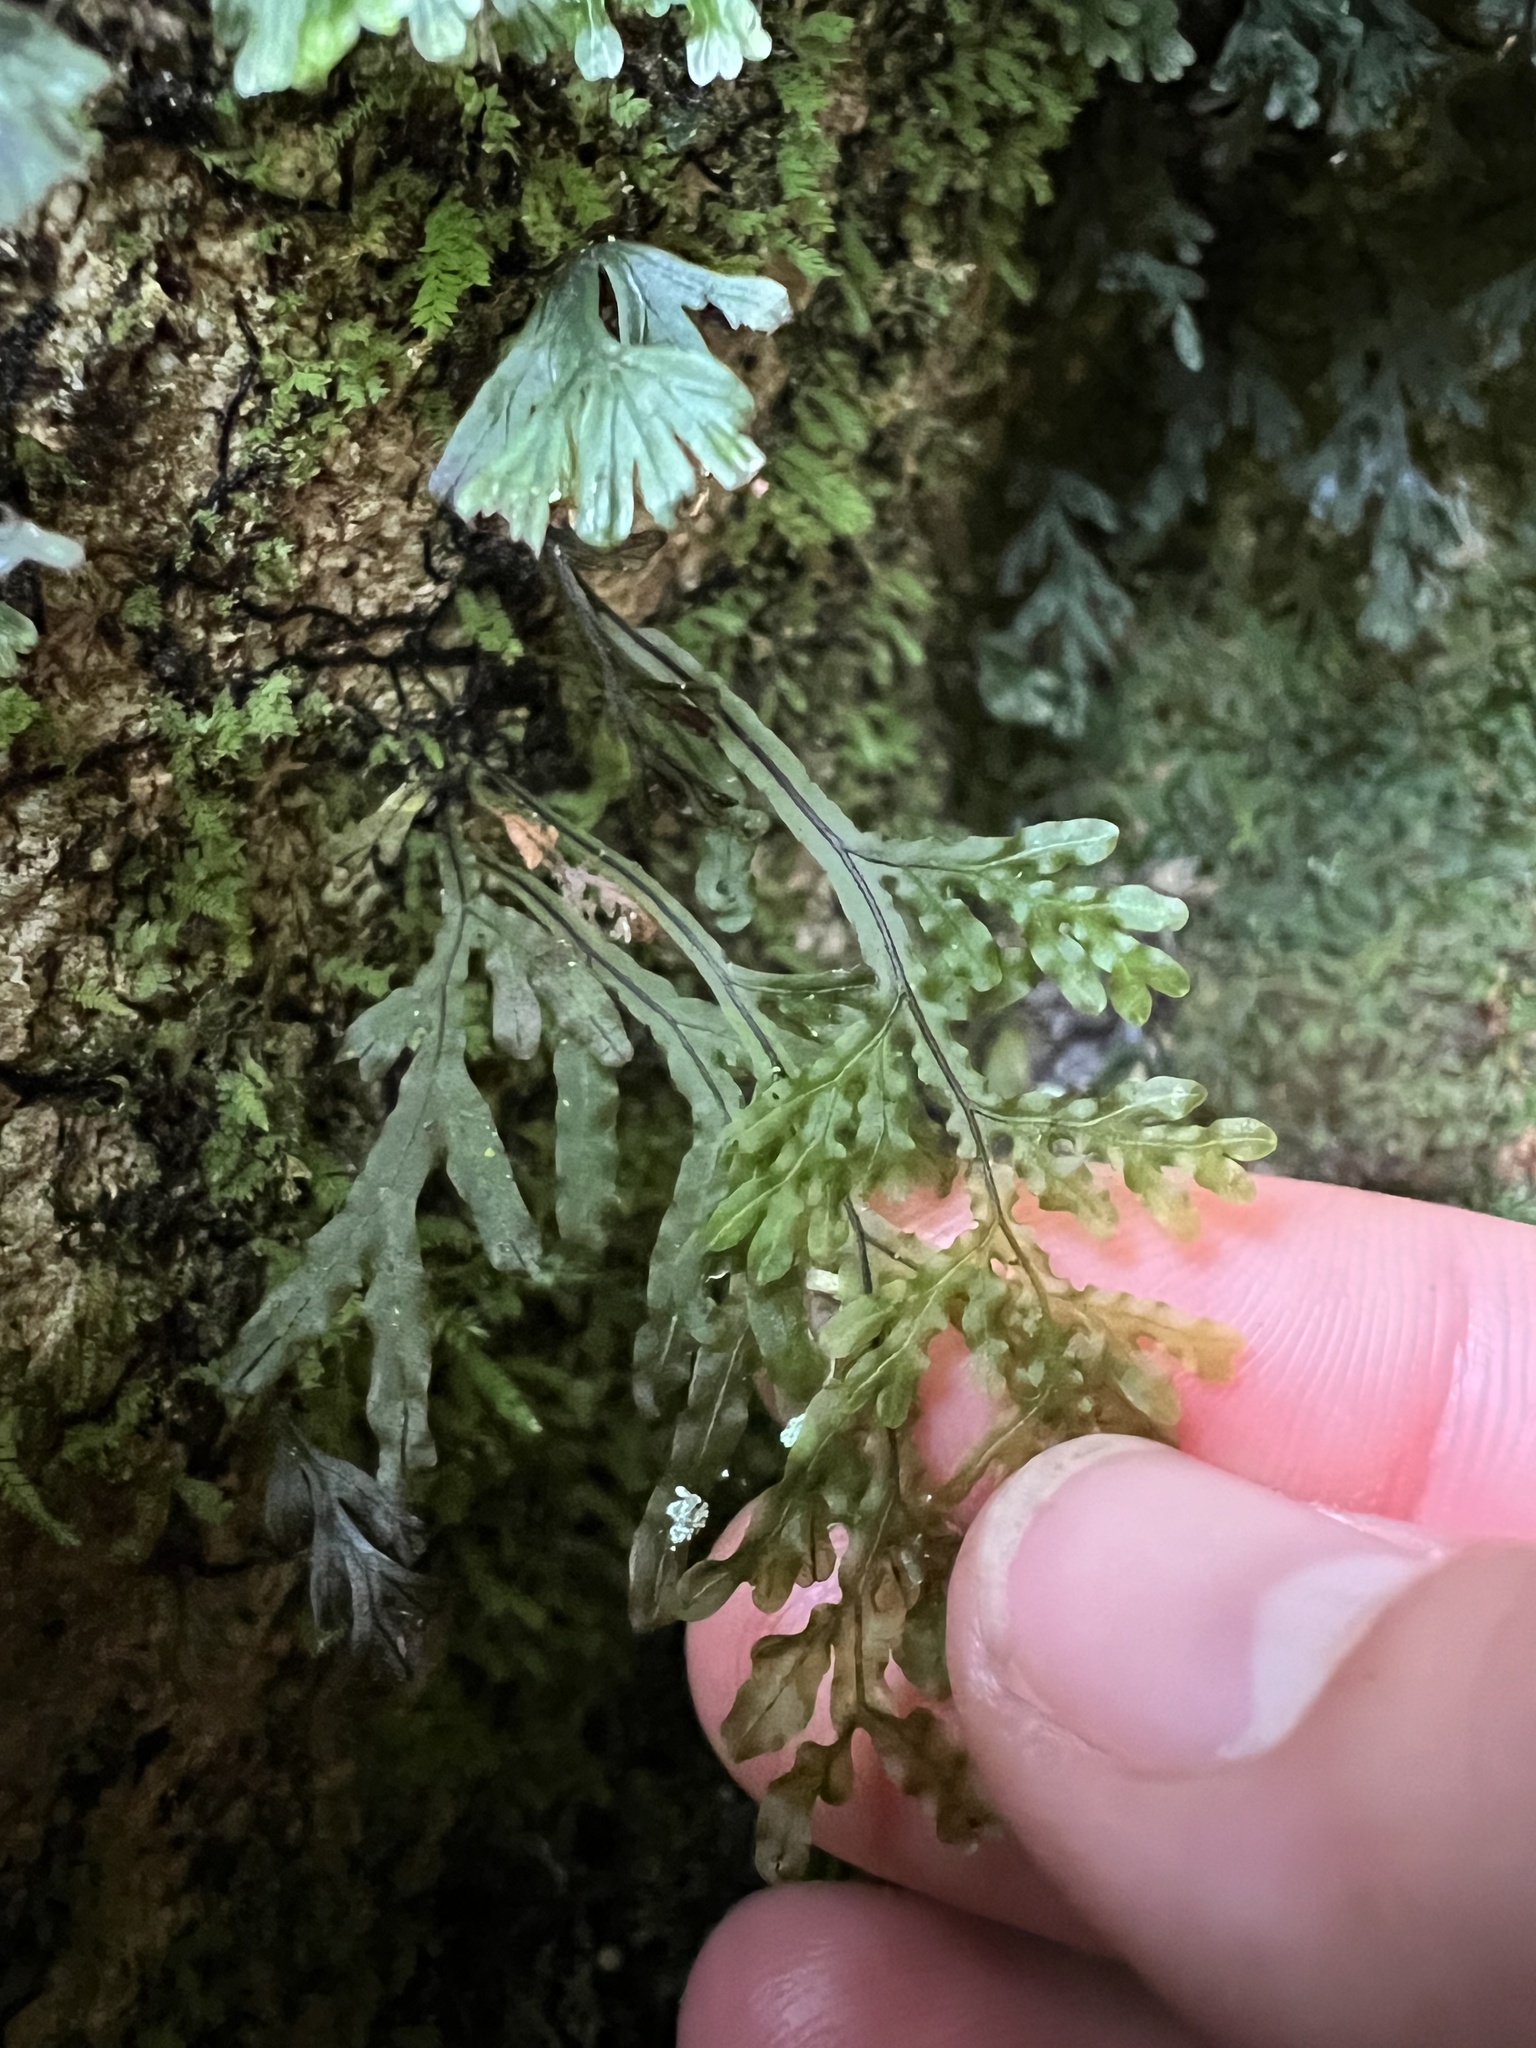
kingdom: Plantae
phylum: Tracheophyta
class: Polypodiopsida
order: Hymenophyllales
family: Hymenophyllaceae
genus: Hymenophyllum
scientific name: Hymenophyllum flexuosum
